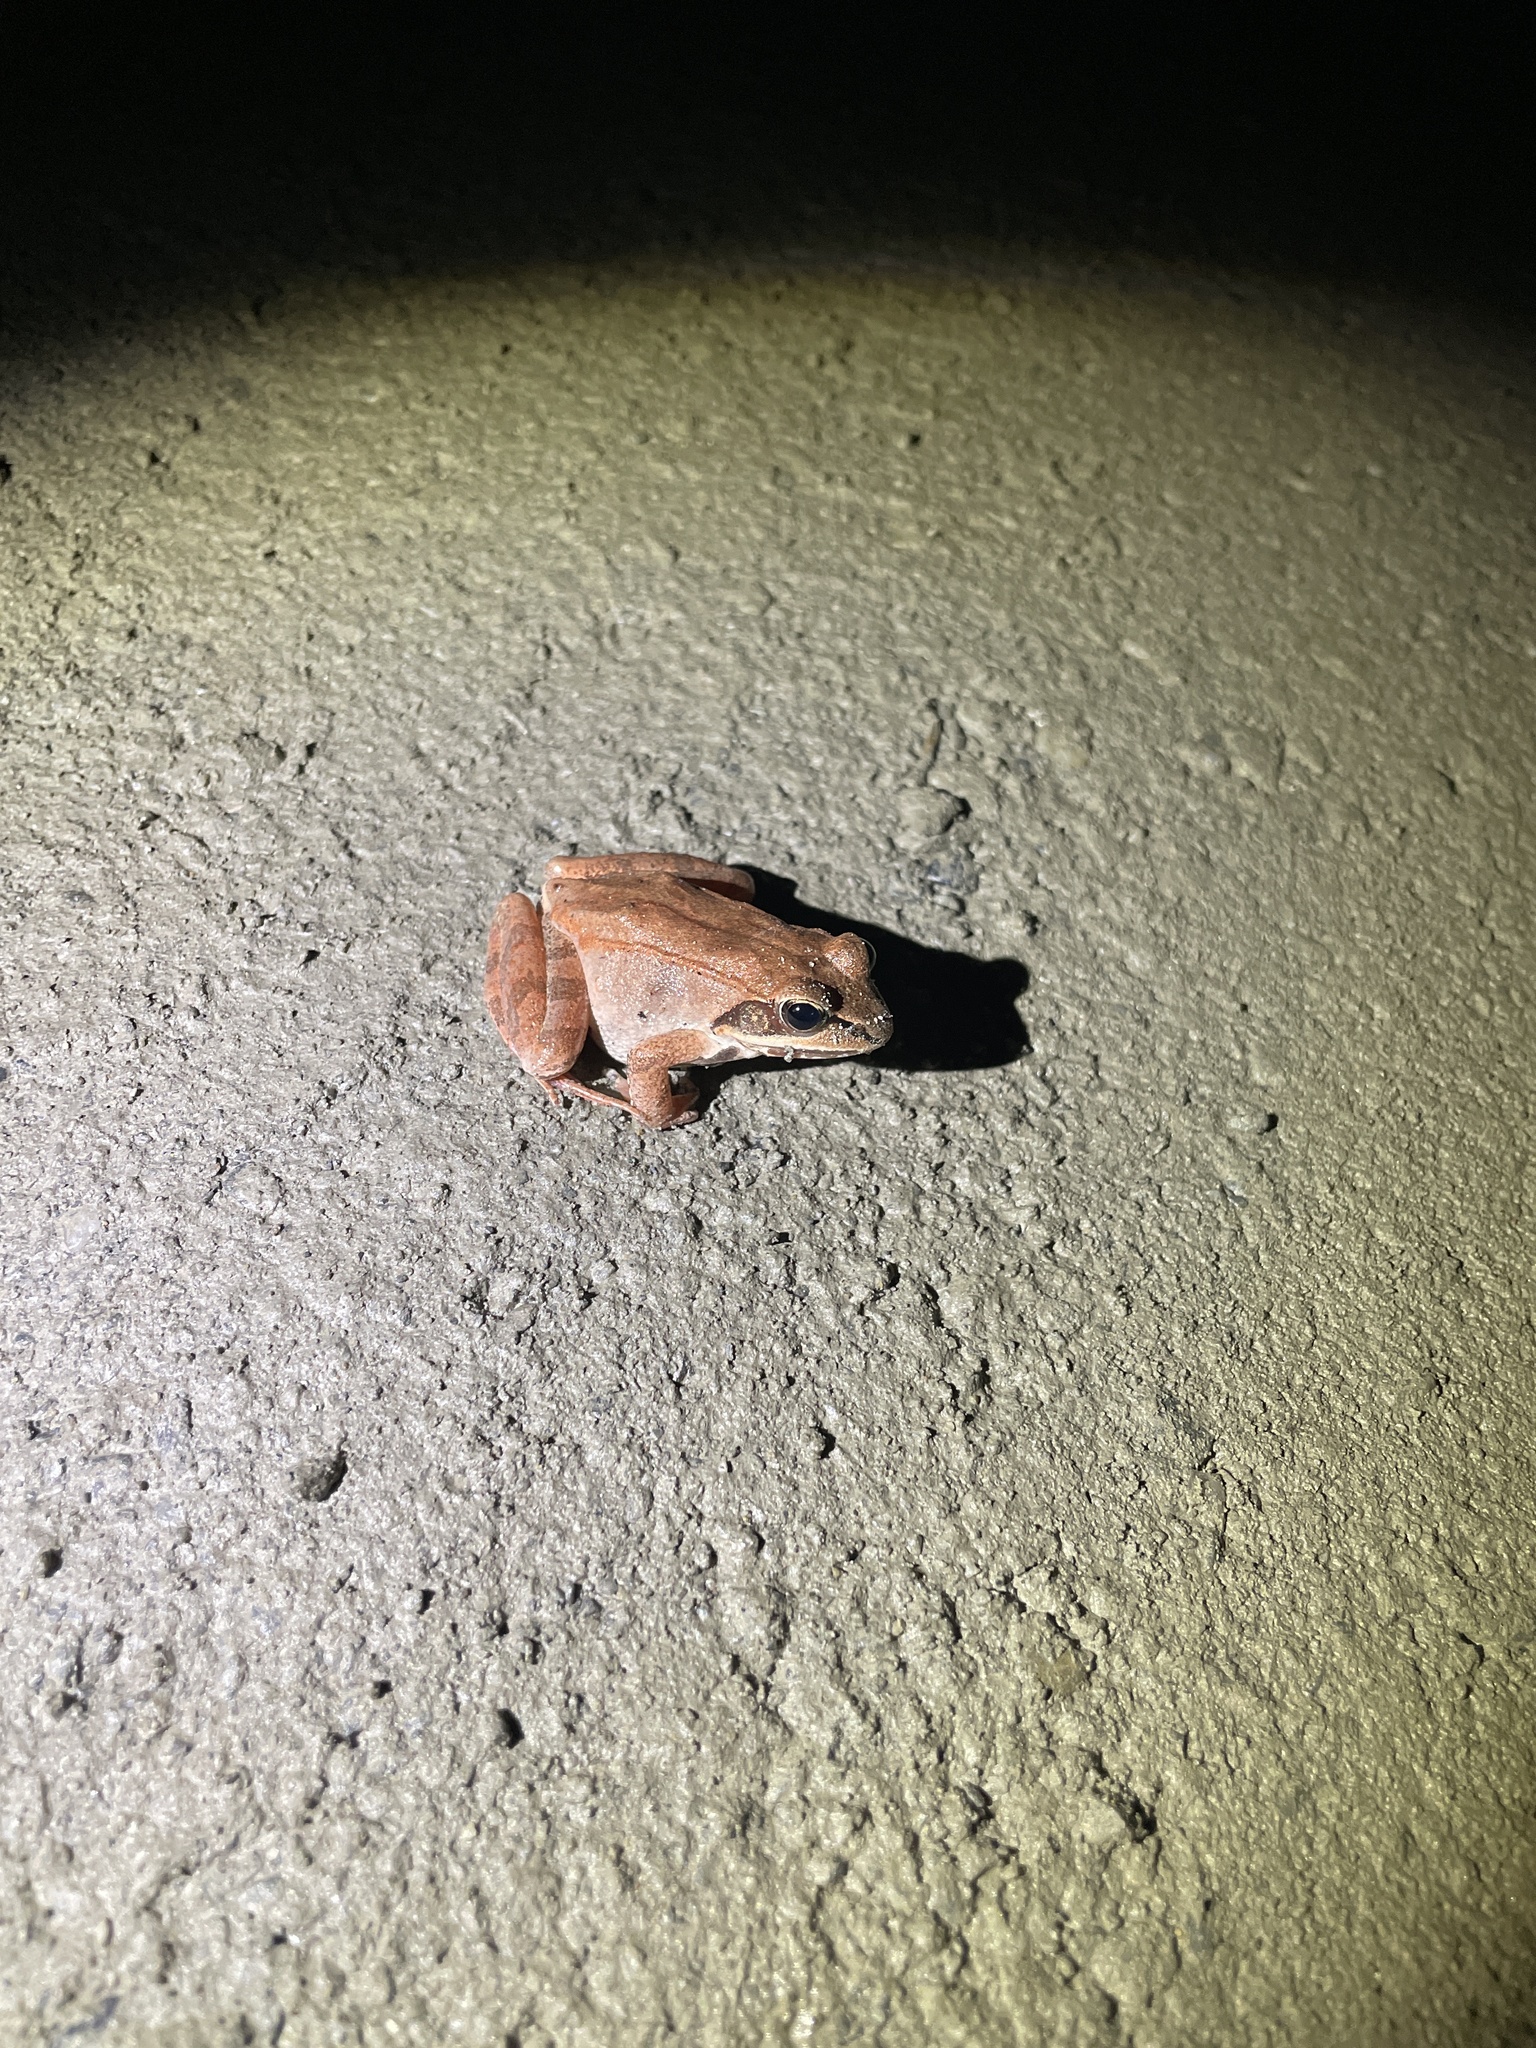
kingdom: Animalia
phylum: Chordata
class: Amphibia
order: Anura
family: Ranidae
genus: Lithobates
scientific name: Lithobates sylvaticus
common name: Wood frog
